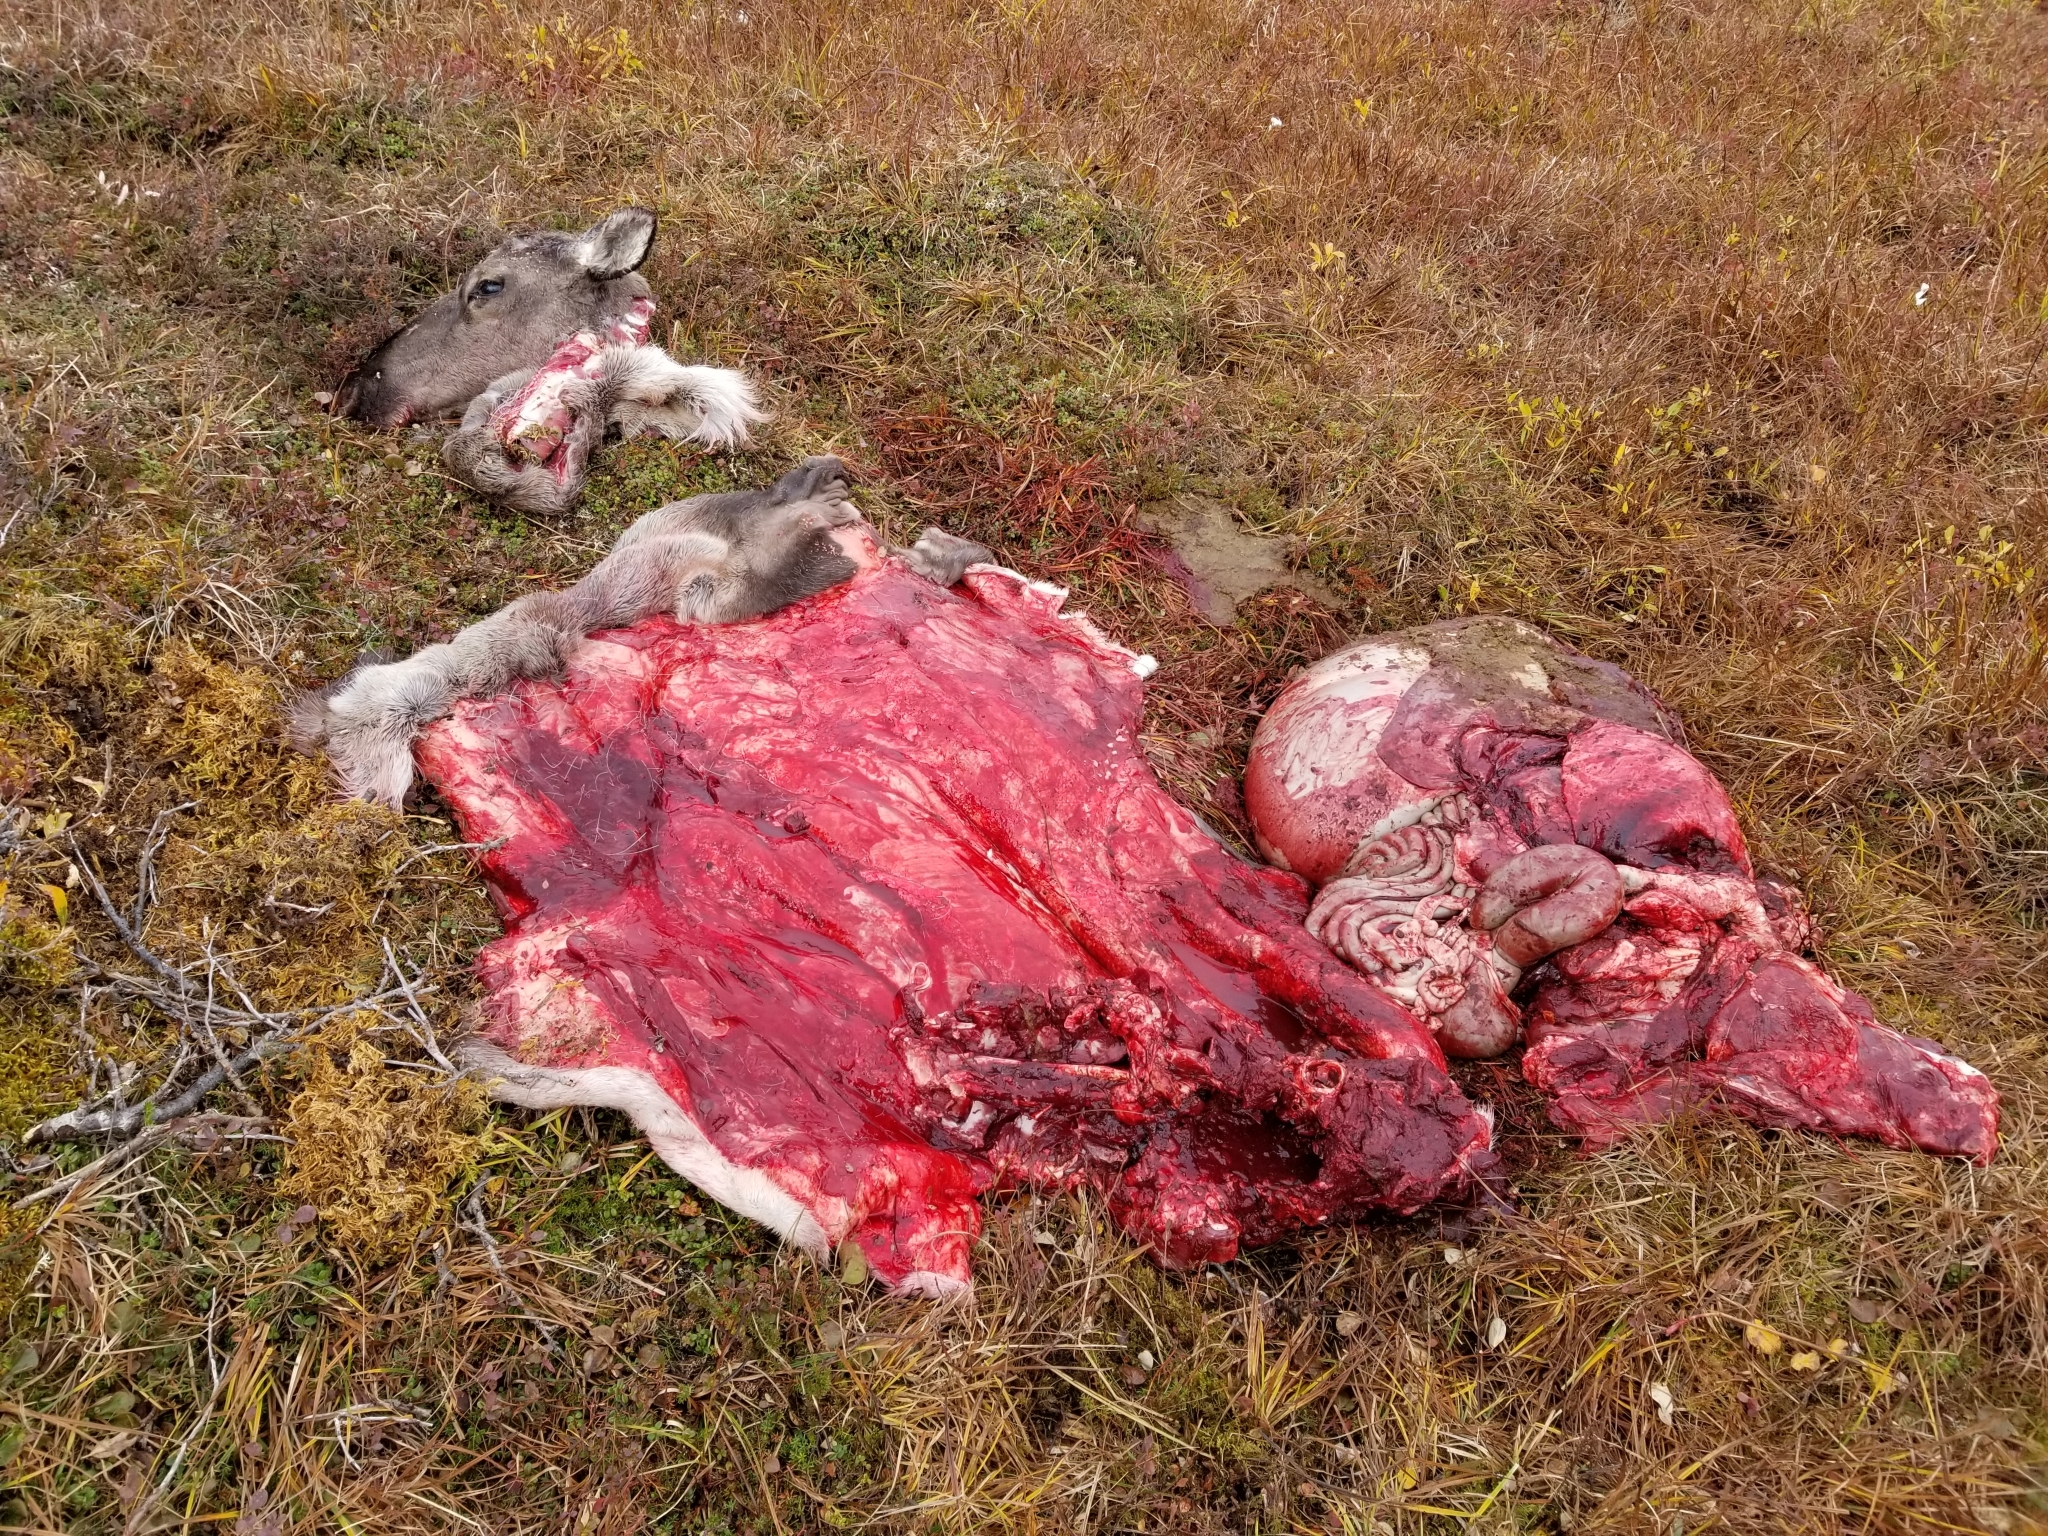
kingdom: Animalia
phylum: Chordata
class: Mammalia
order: Artiodactyla
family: Cervidae
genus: Rangifer
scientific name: Rangifer tarandus
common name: Reindeer
